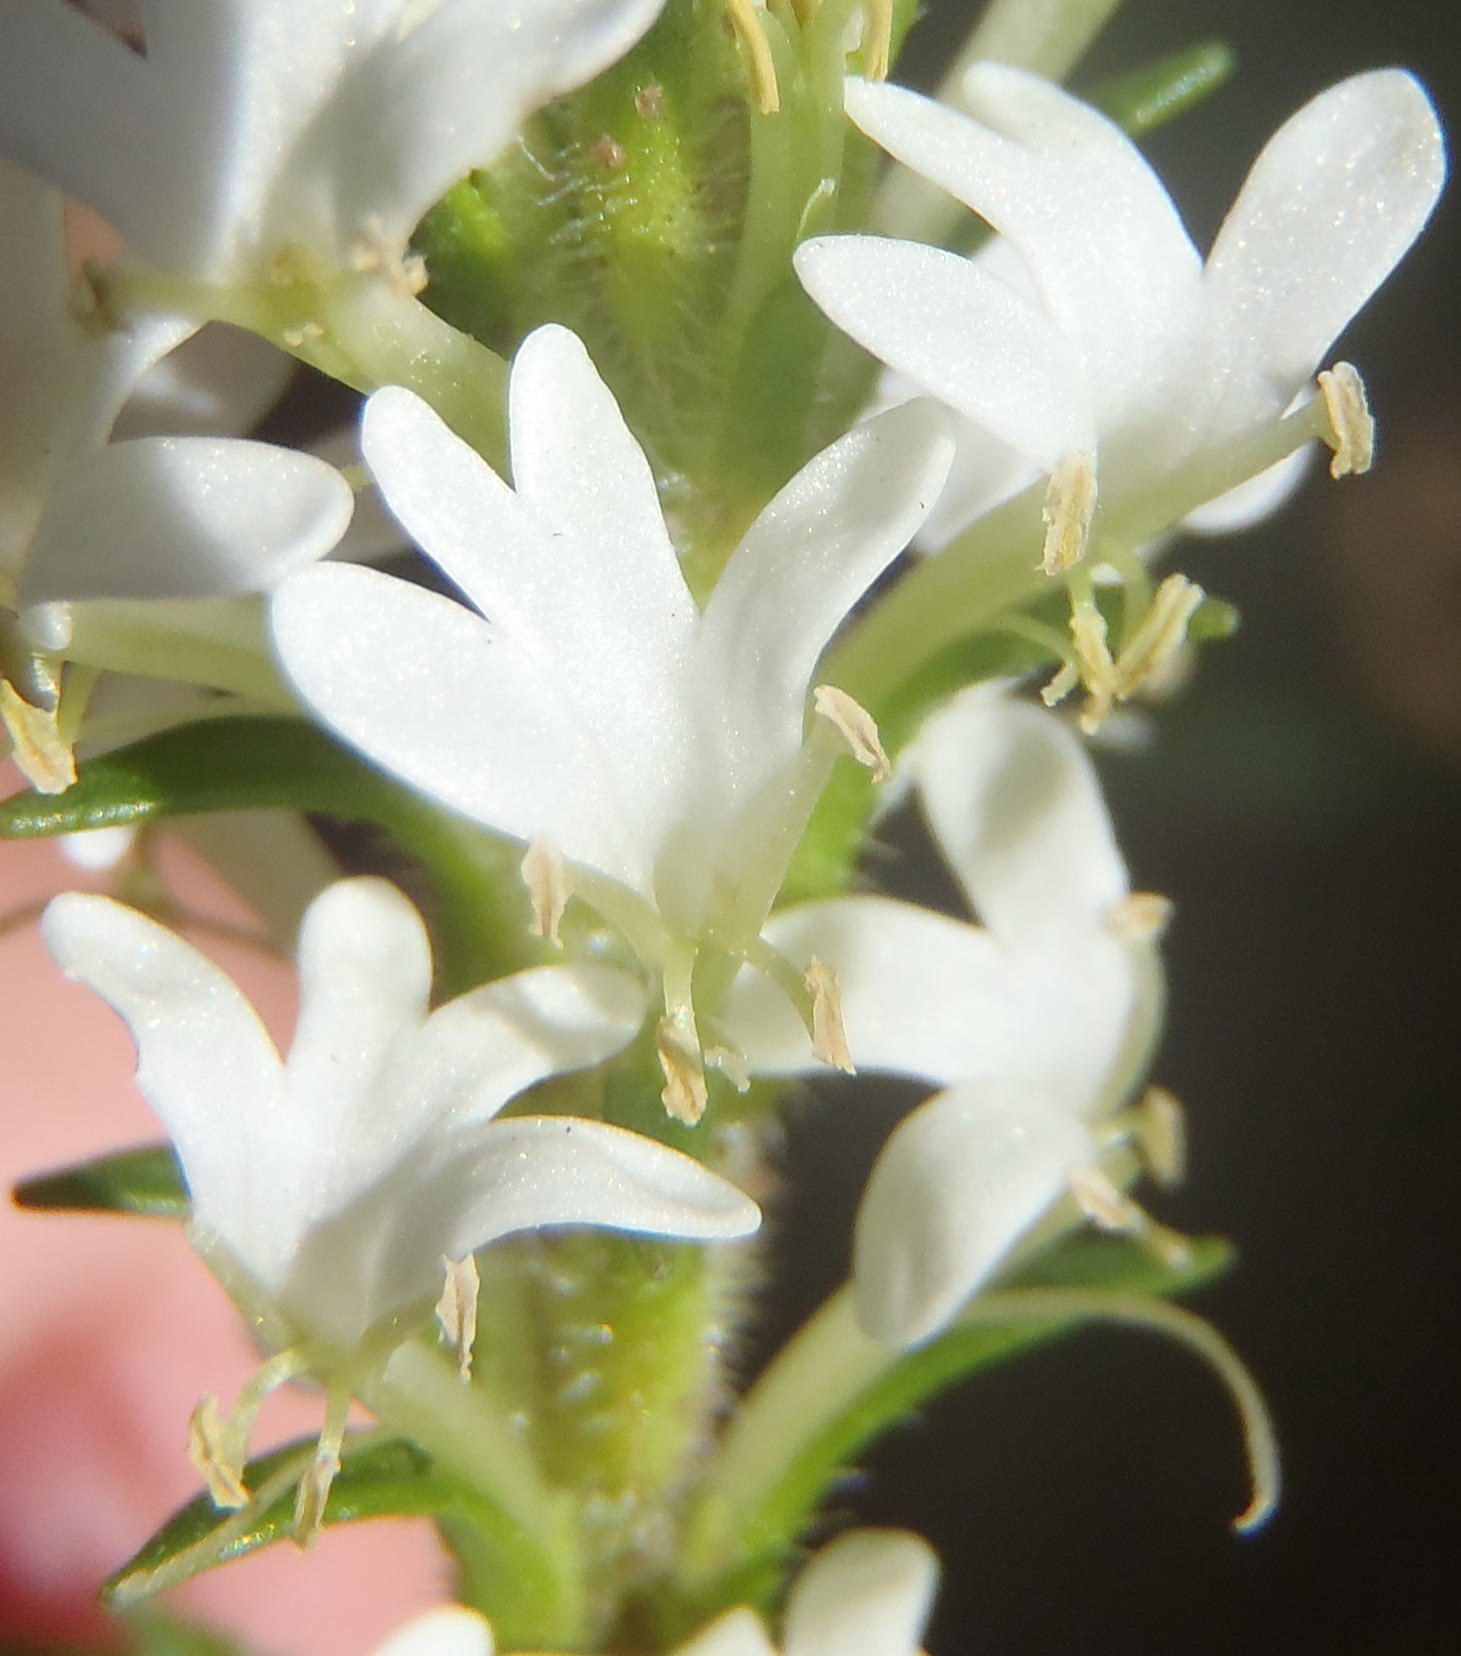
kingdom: Plantae
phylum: Tracheophyta
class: Magnoliopsida
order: Lamiales
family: Scrophulariaceae
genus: Dischisma
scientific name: Dischisma ciliatum
